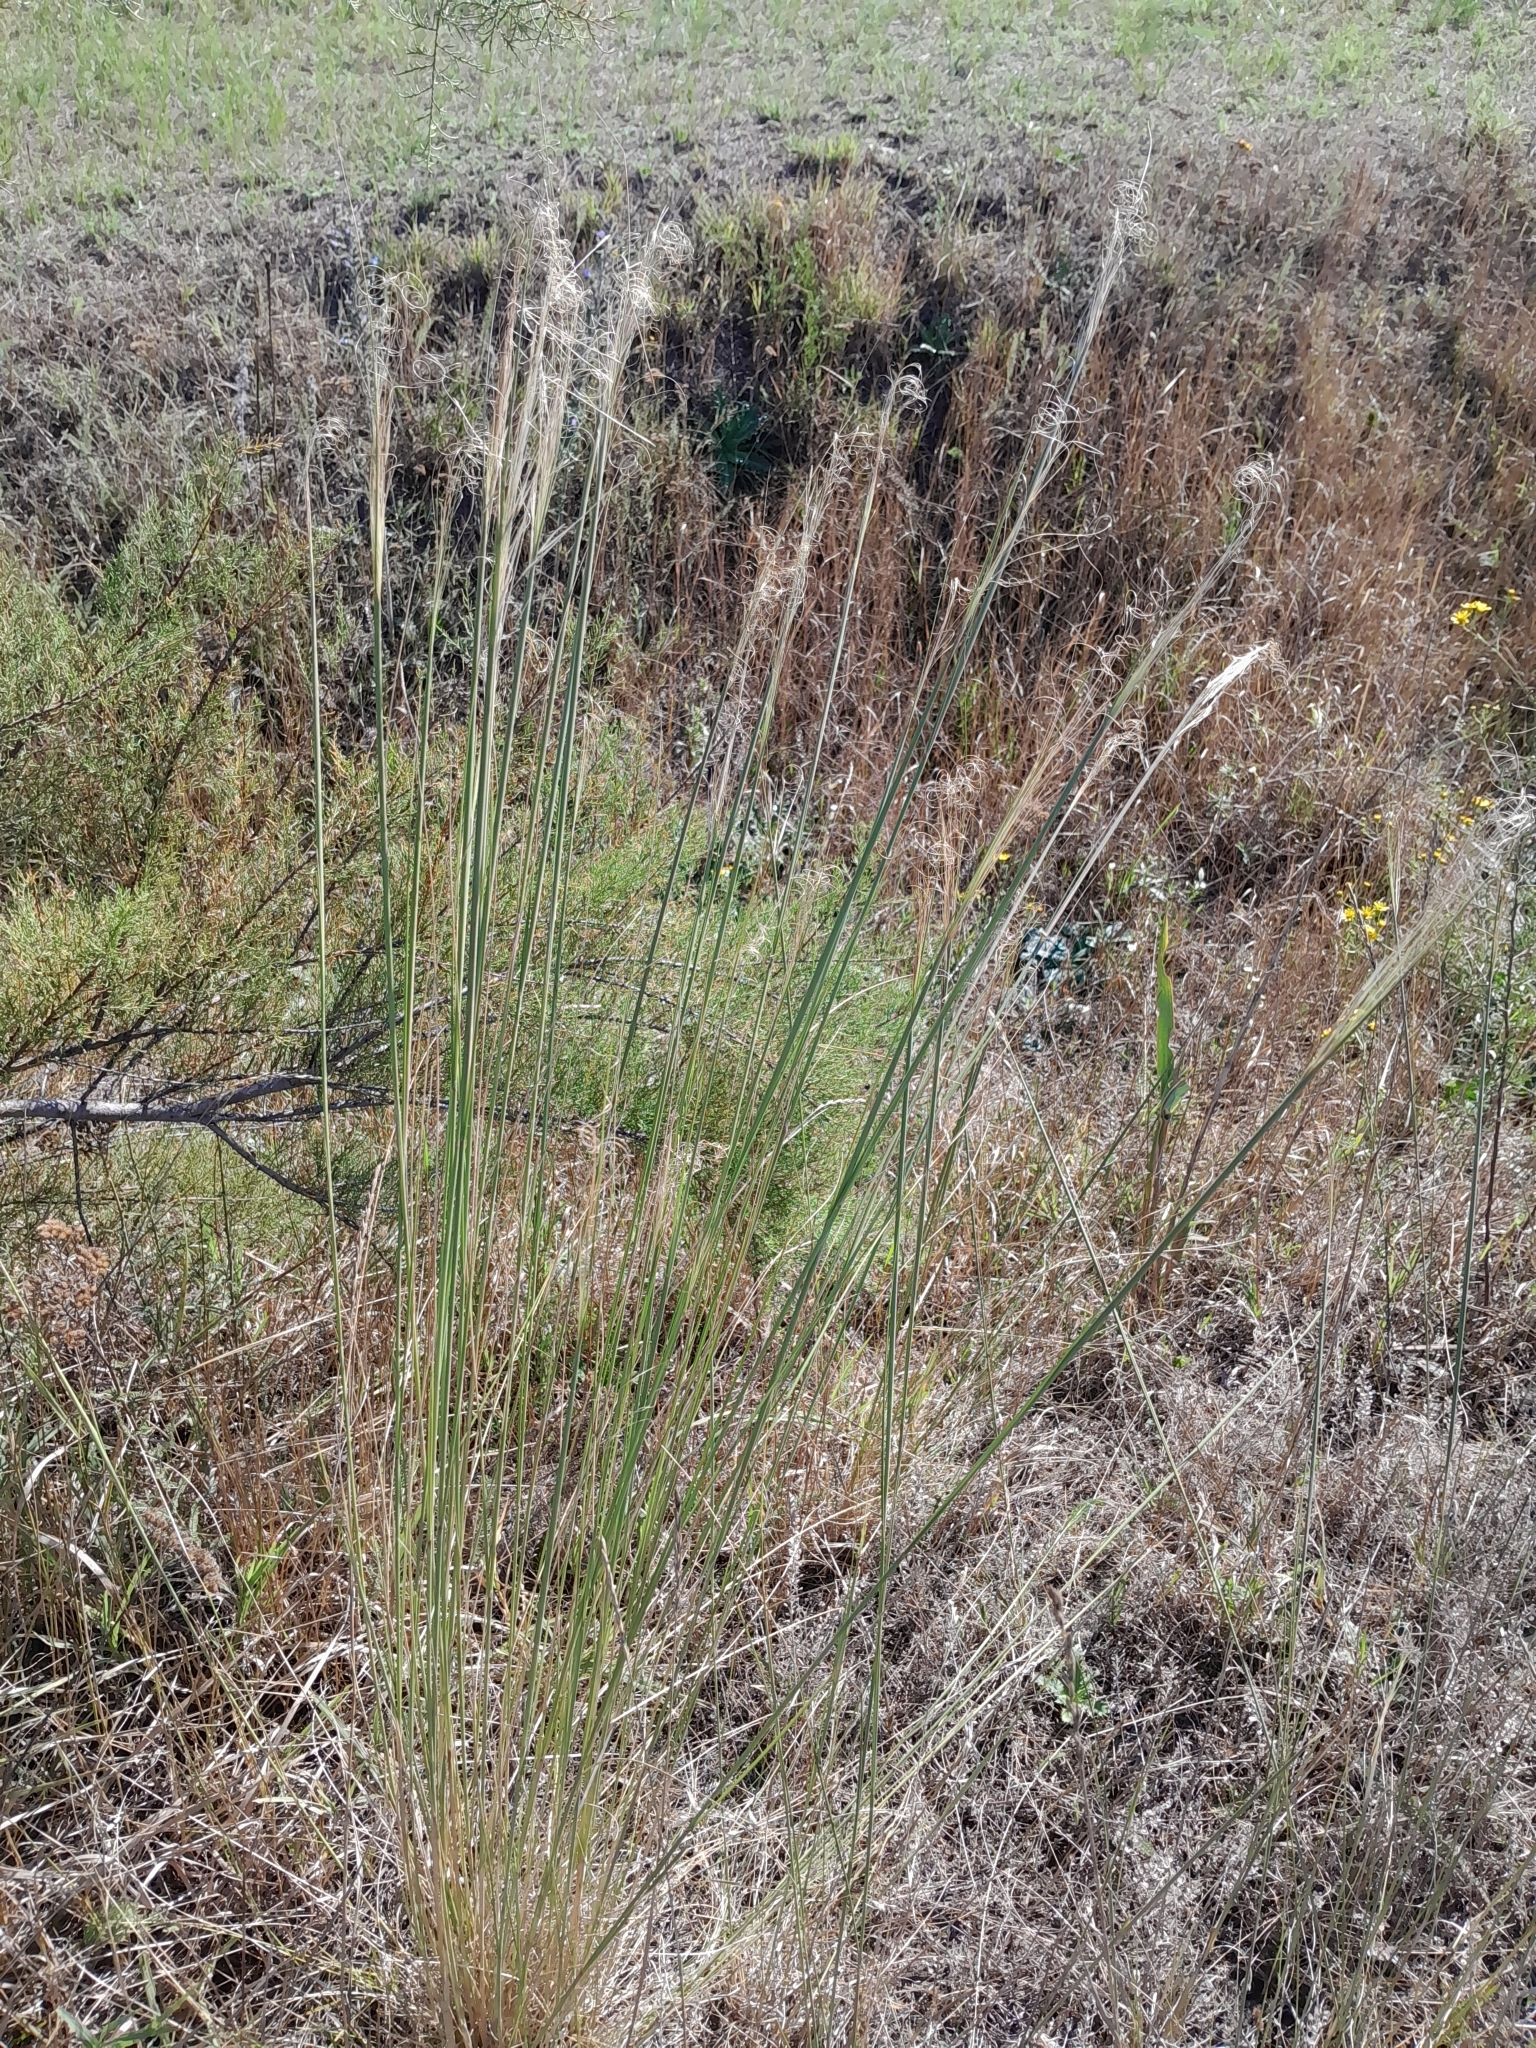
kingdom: Plantae
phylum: Tracheophyta
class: Liliopsida
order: Poales
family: Poaceae
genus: Stipa
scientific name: Stipa capillata
